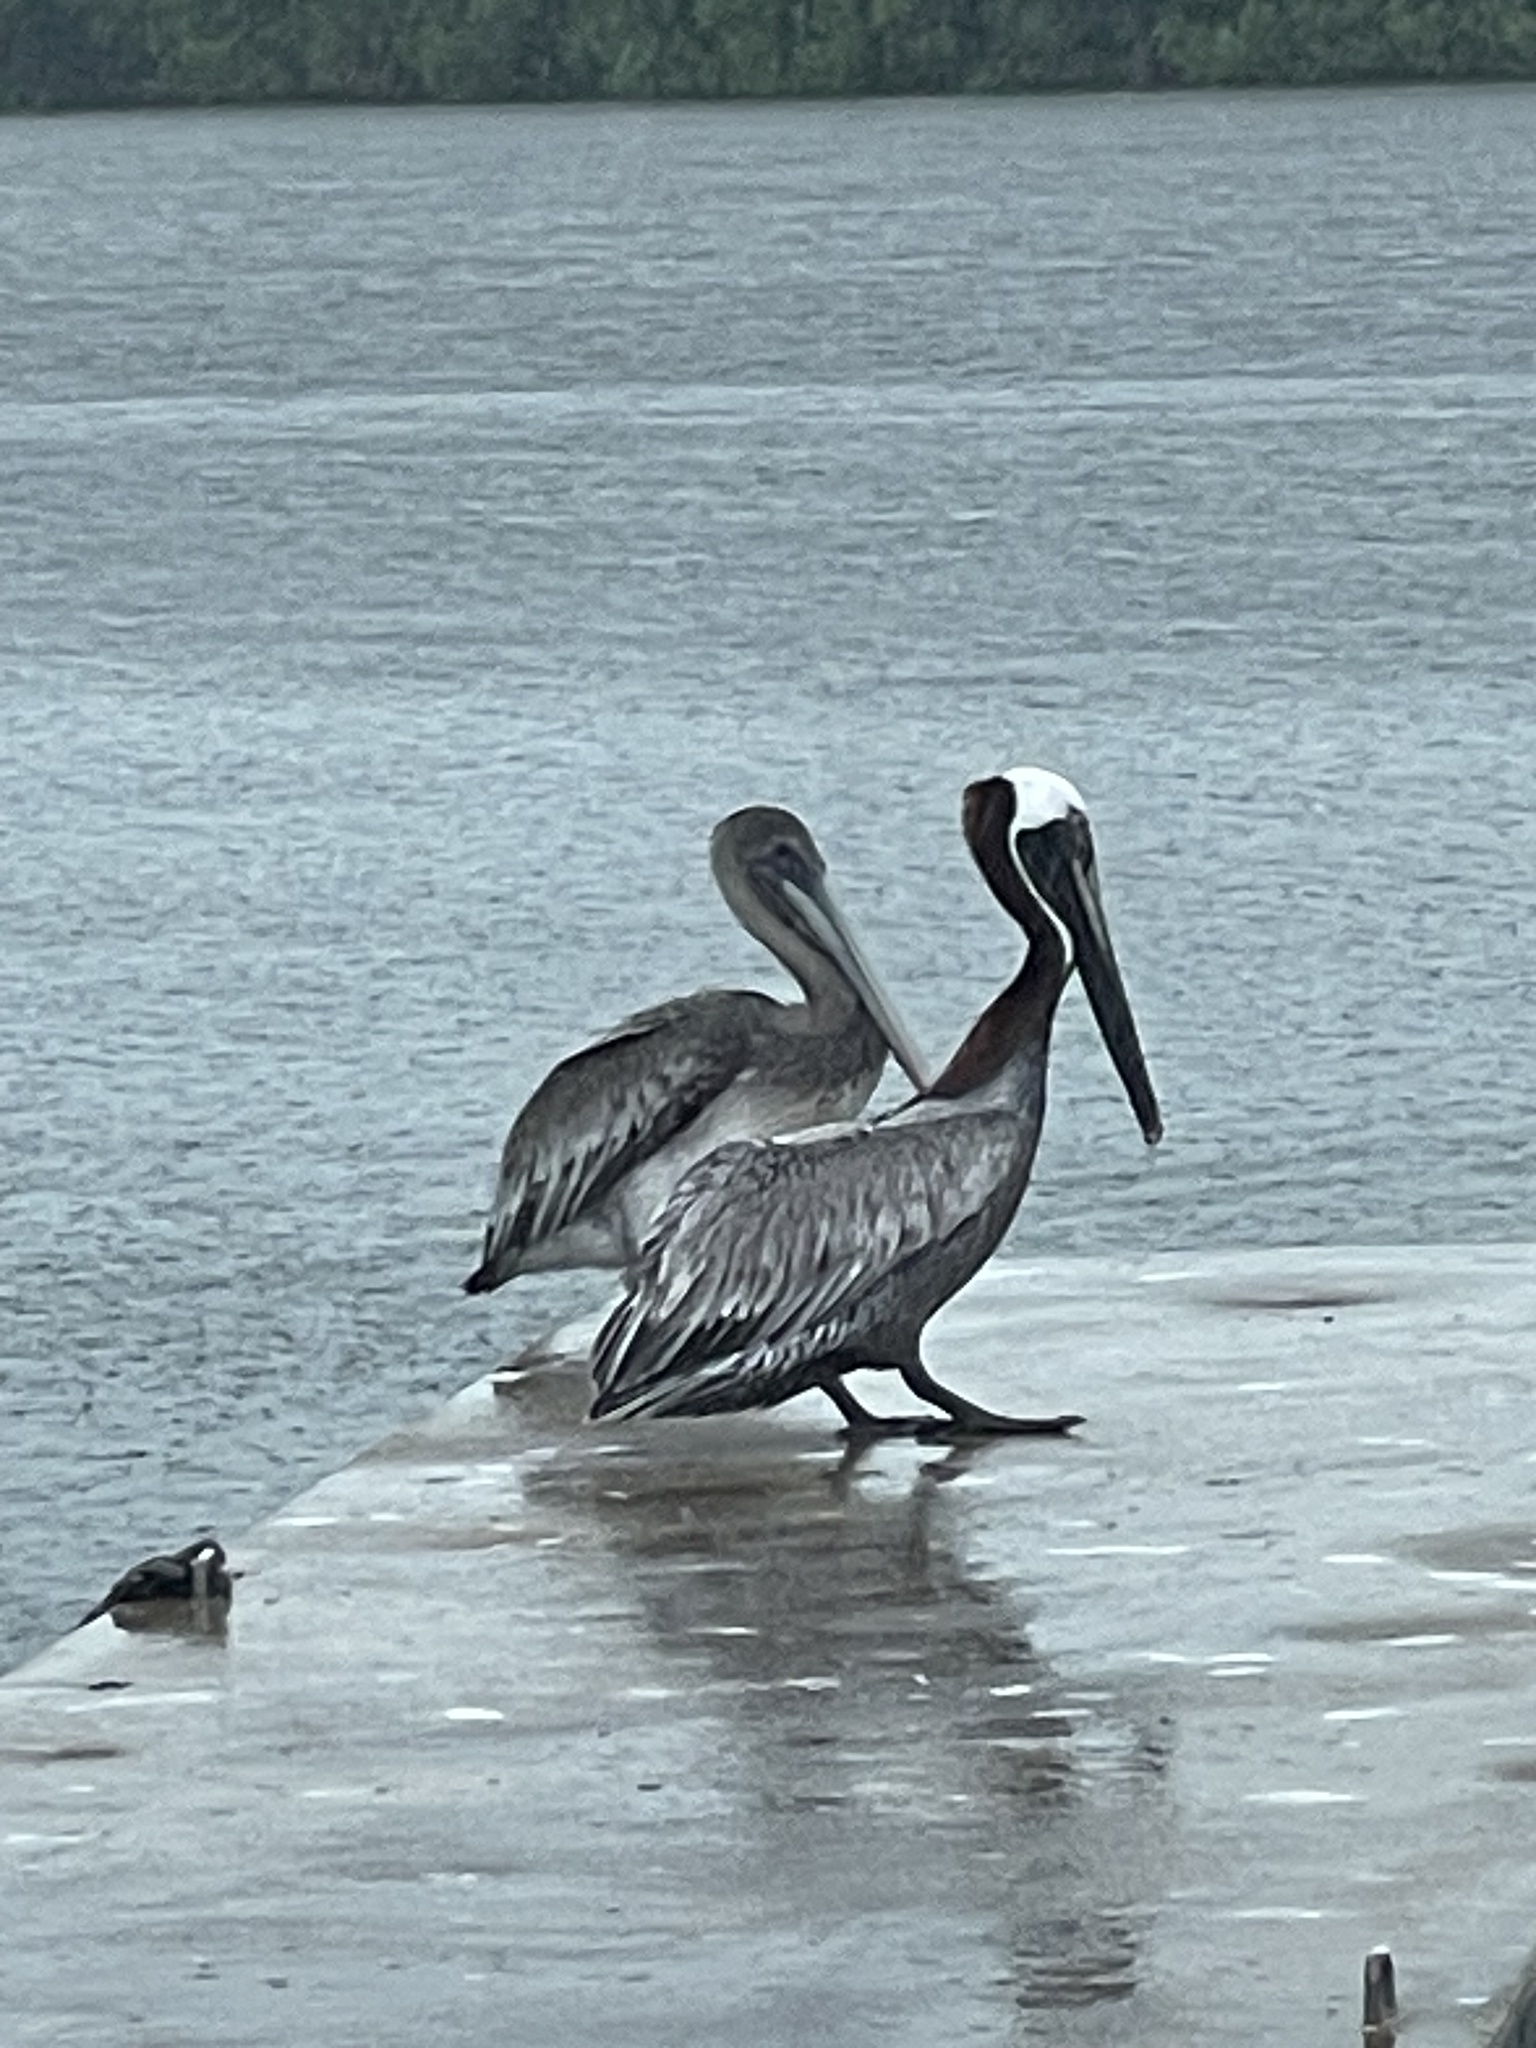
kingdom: Animalia
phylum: Chordata
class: Aves
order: Pelecaniformes
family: Pelecanidae
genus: Pelecanus
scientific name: Pelecanus occidentalis
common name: Brown pelican
